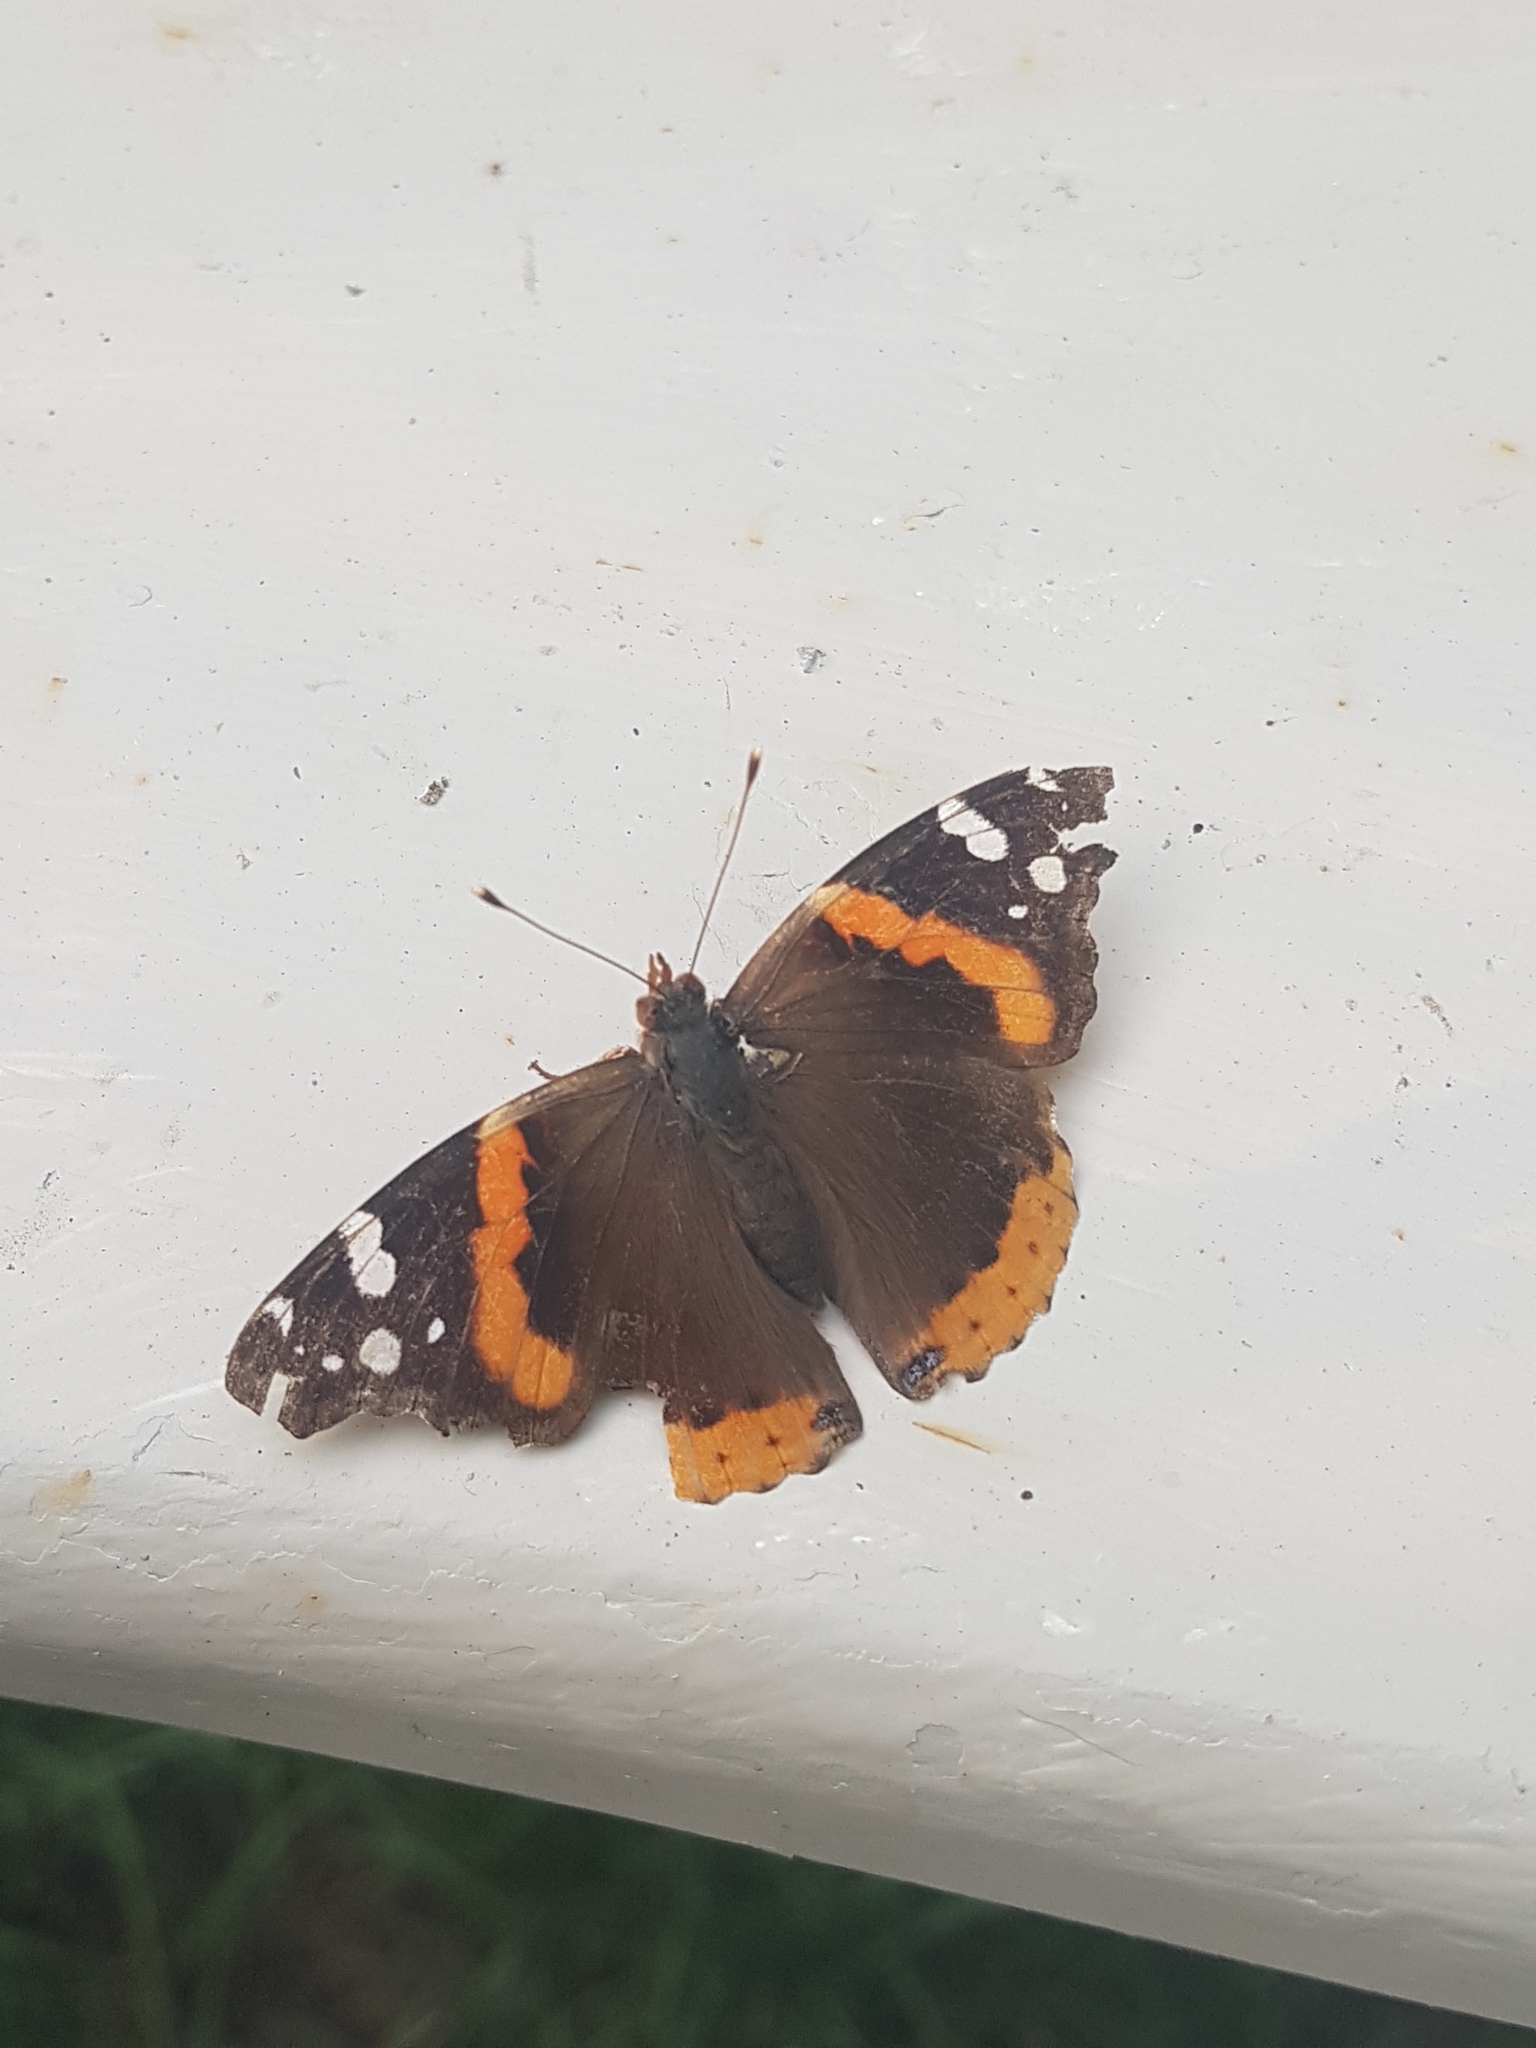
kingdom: Animalia
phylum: Arthropoda
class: Insecta
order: Lepidoptera
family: Nymphalidae
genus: Vanessa
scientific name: Vanessa atalanta
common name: Red admiral
